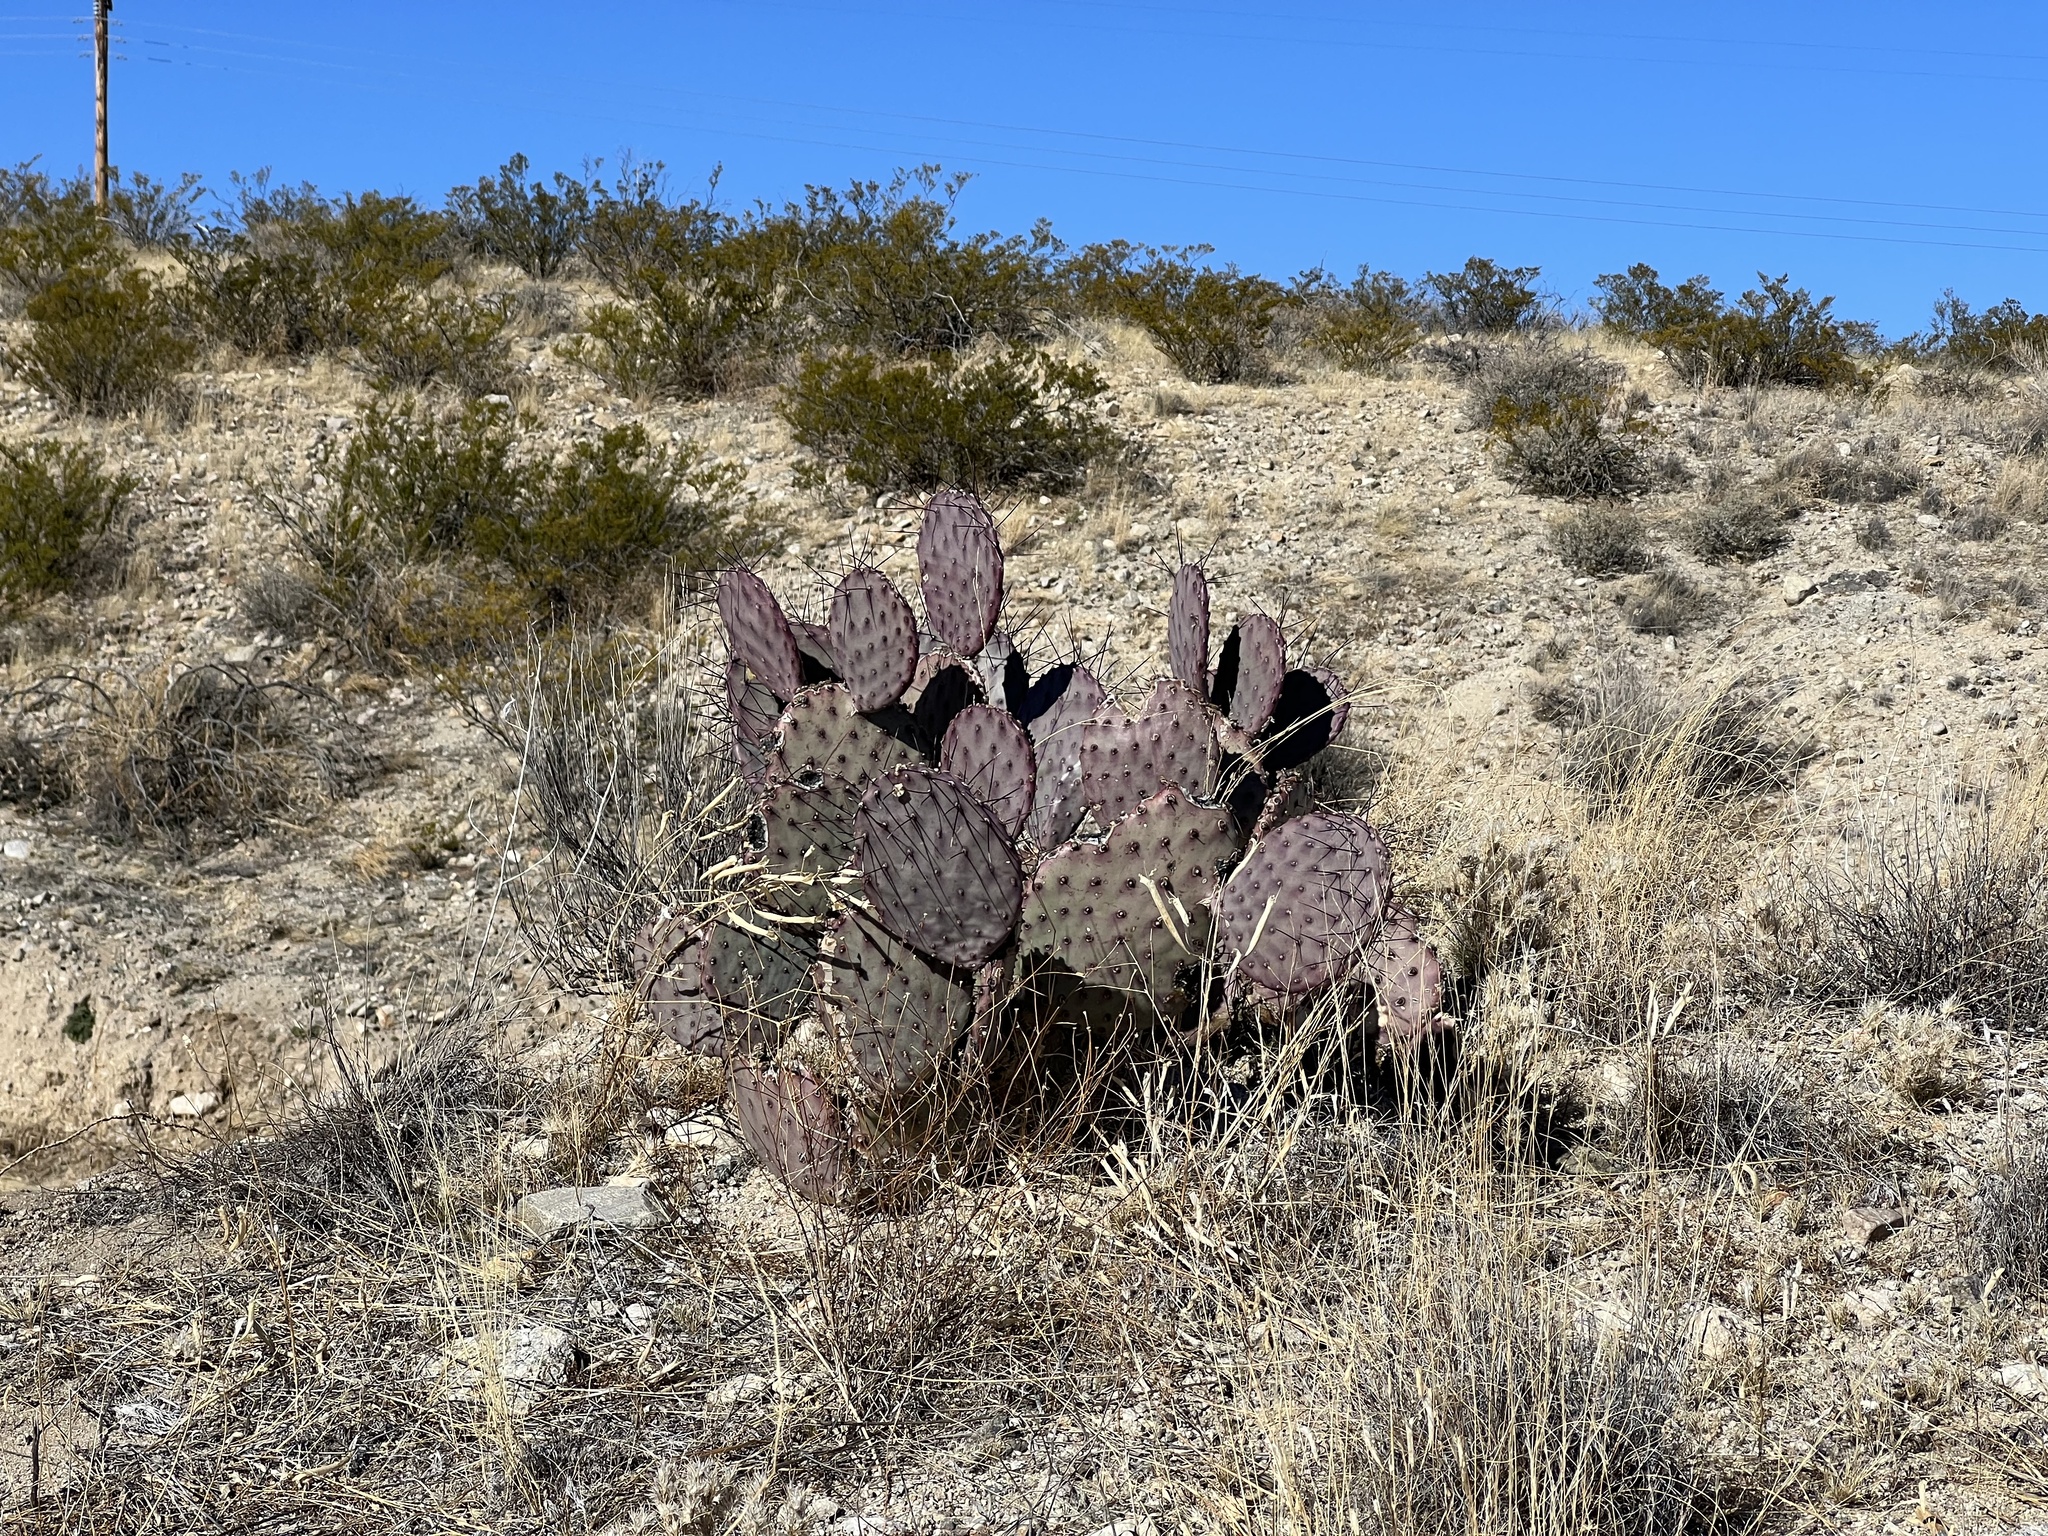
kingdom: Plantae
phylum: Tracheophyta
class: Magnoliopsida
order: Caryophyllales
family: Cactaceae
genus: Opuntia
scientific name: Opuntia macrocentra
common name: Purple prickly-pear
